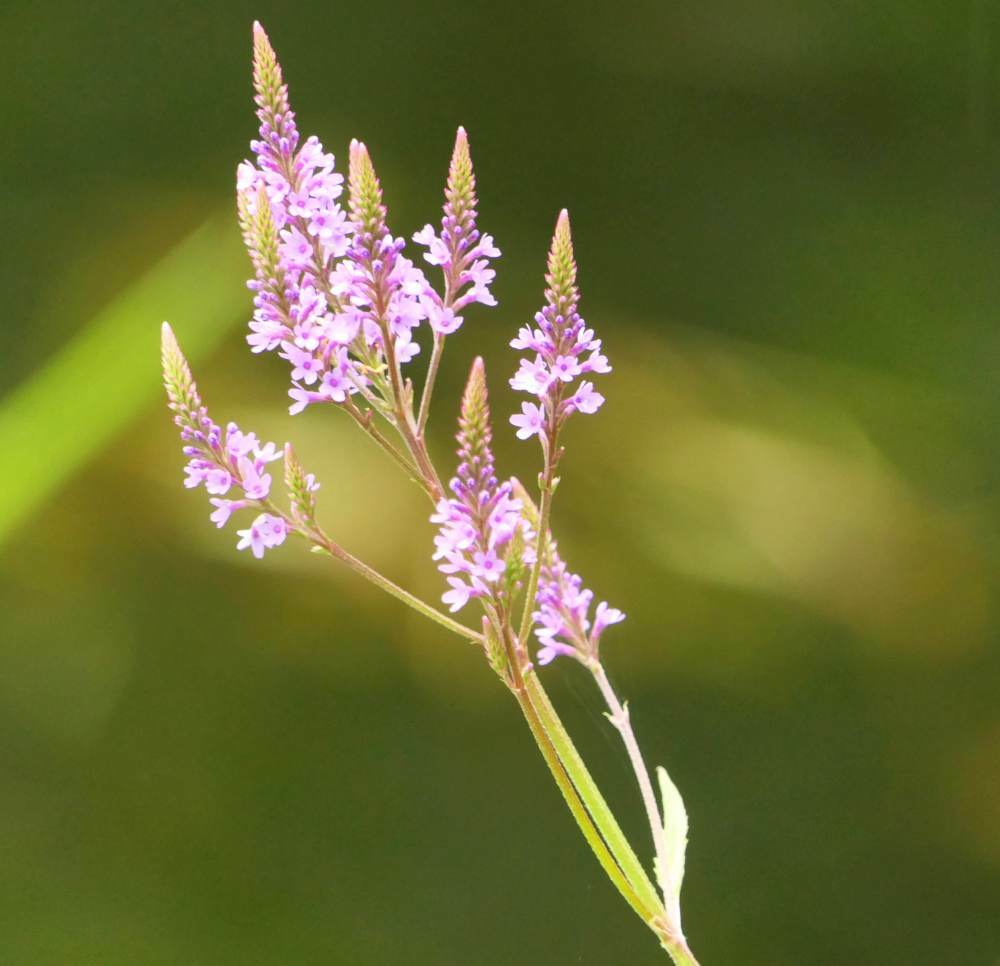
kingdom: Plantae
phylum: Tracheophyta
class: Magnoliopsida
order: Lamiales
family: Verbenaceae
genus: Verbena
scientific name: Verbena hastata
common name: American blue vervain
